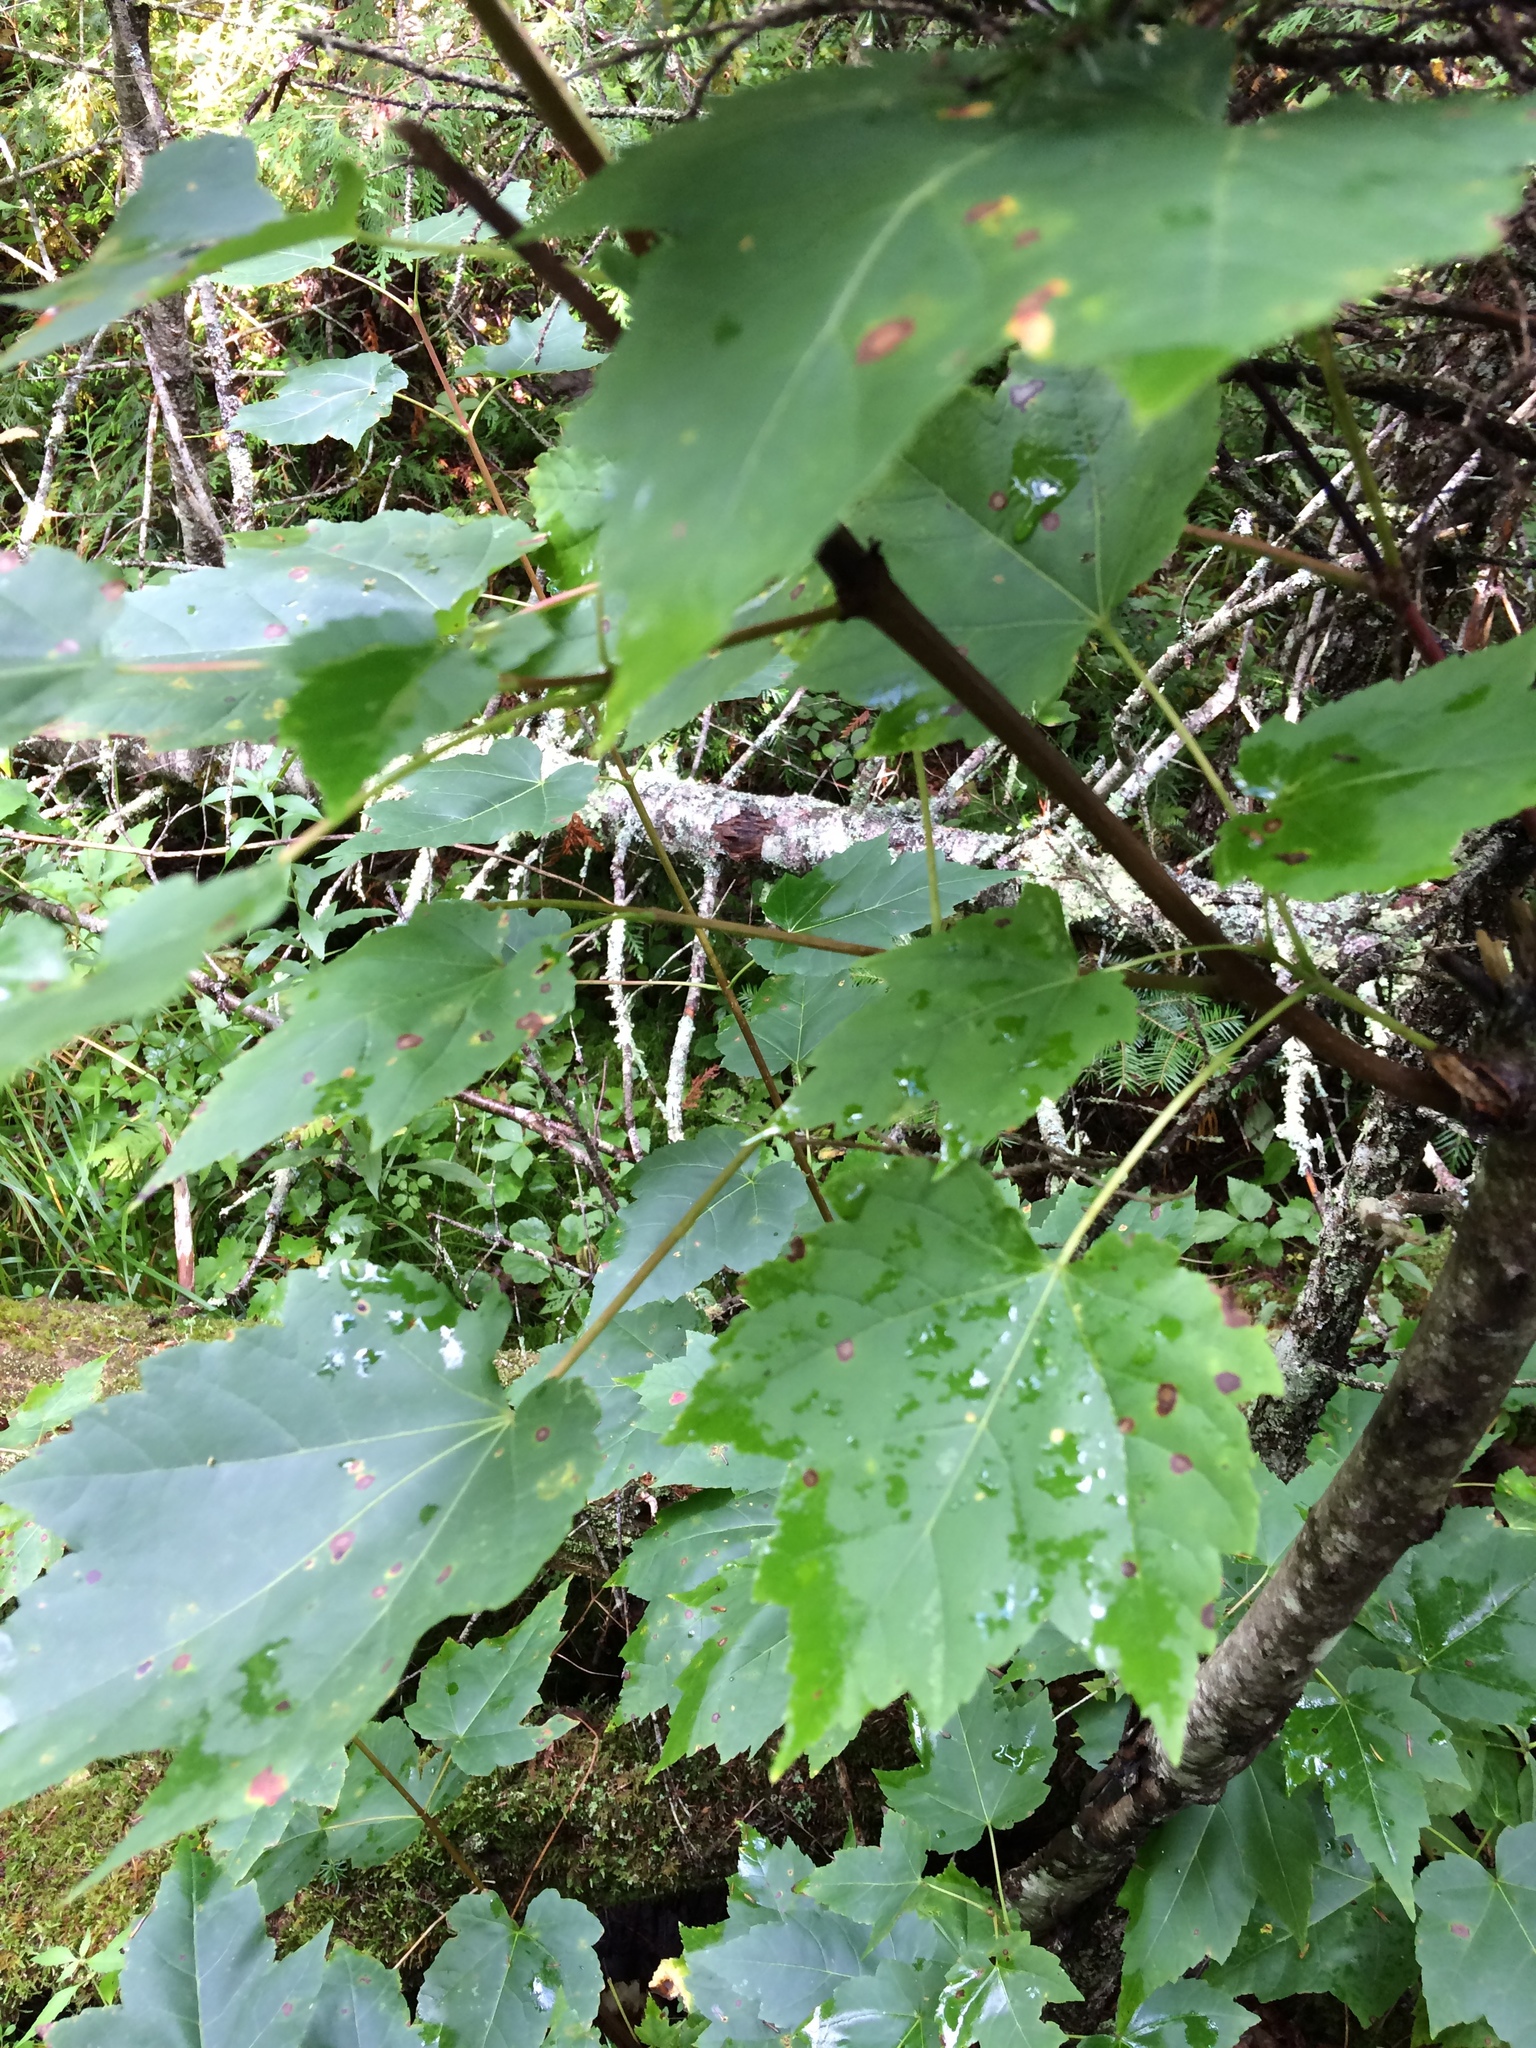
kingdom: Plantae
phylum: Tracheophyta
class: Magnoliopsida
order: Sapindales
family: Sapindaceae
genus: Acer
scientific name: Acer rubrum
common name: Red maple
